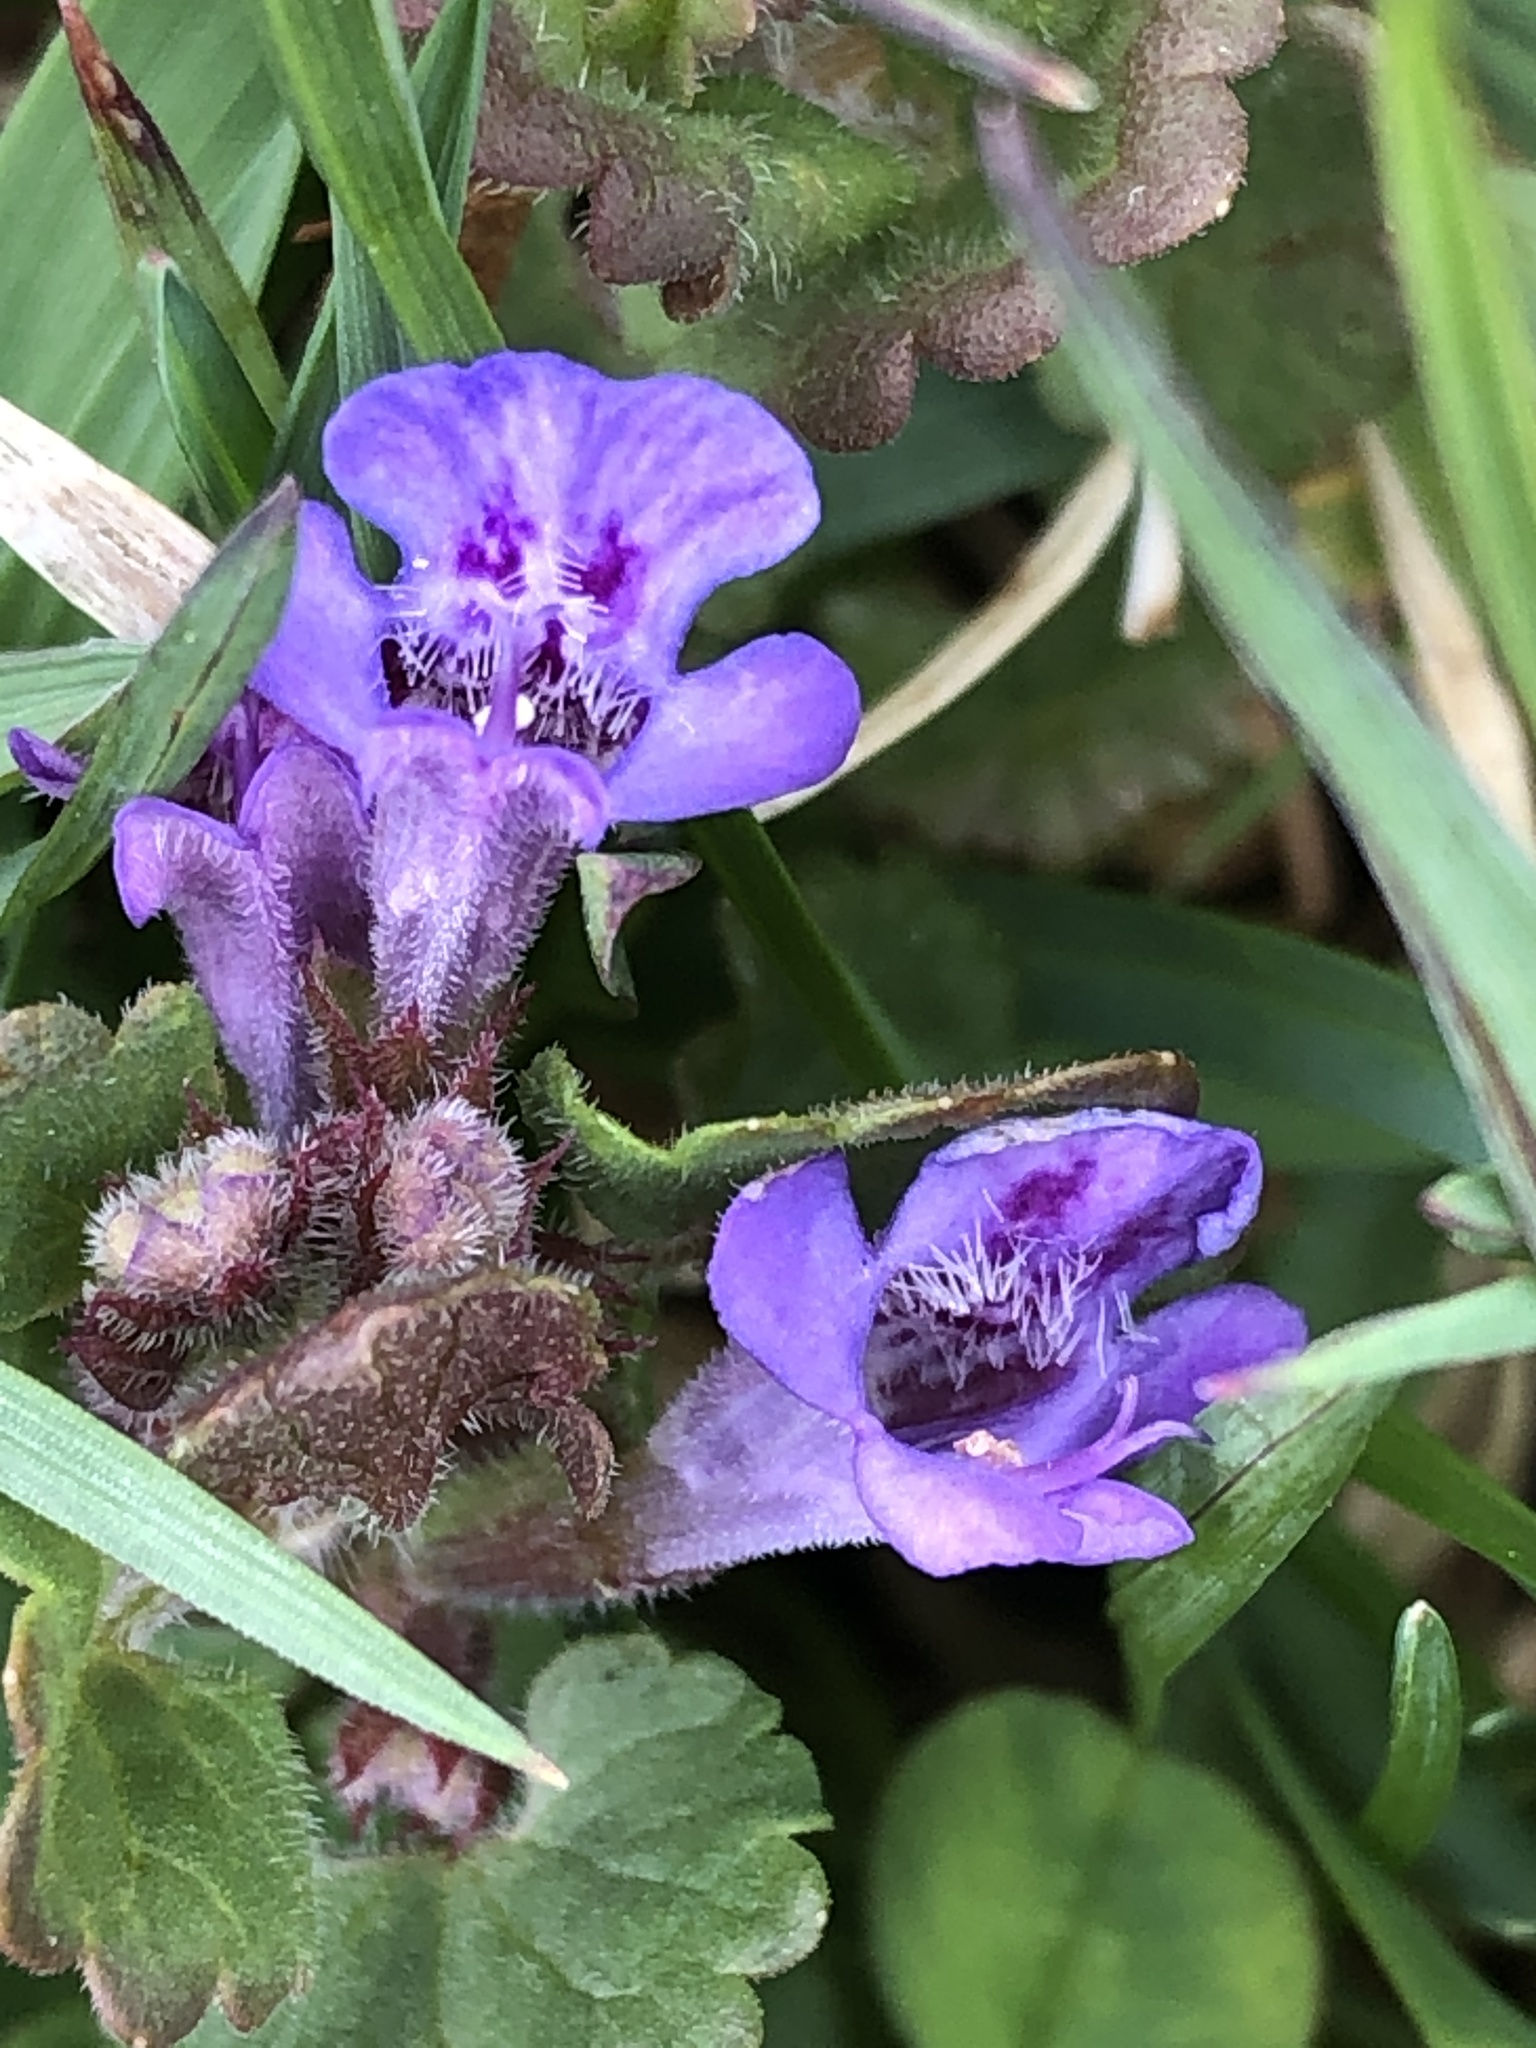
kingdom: Plantae
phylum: Tracheophyta
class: Magnoliopsida
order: Lamiales
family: Lamiaceae
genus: Glechoma
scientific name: Glechoma hederacea
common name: Ground ivy
